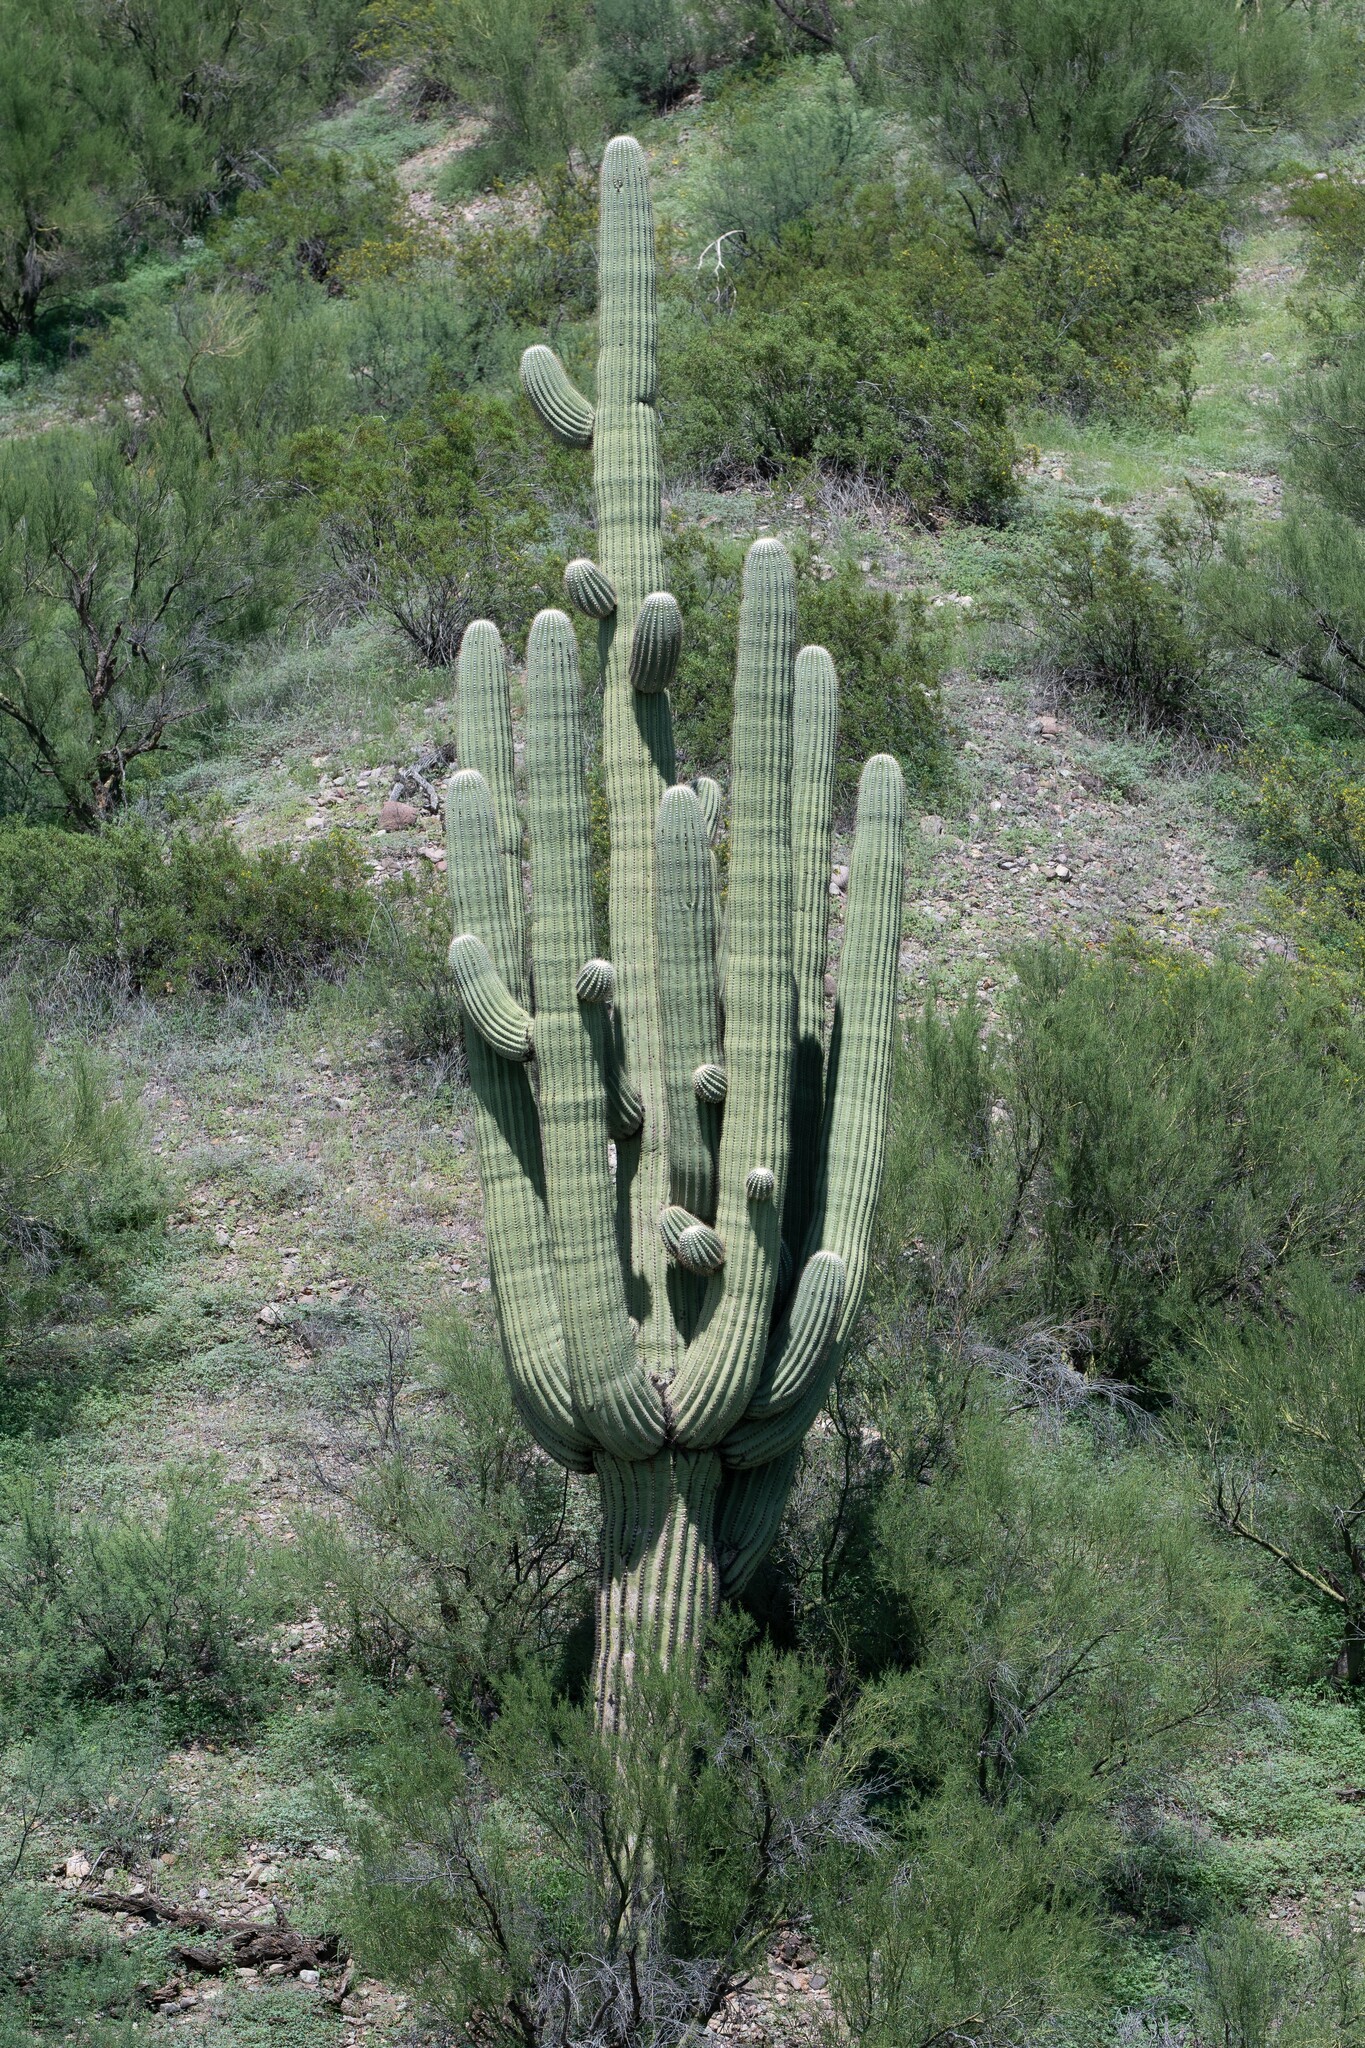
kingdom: Plantae
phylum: Tracheophyta
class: Magnoliopsida
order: Caryophyllales
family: Cactaceae
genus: Carnegiea
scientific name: Carnegiea gigantea
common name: Saguaro
